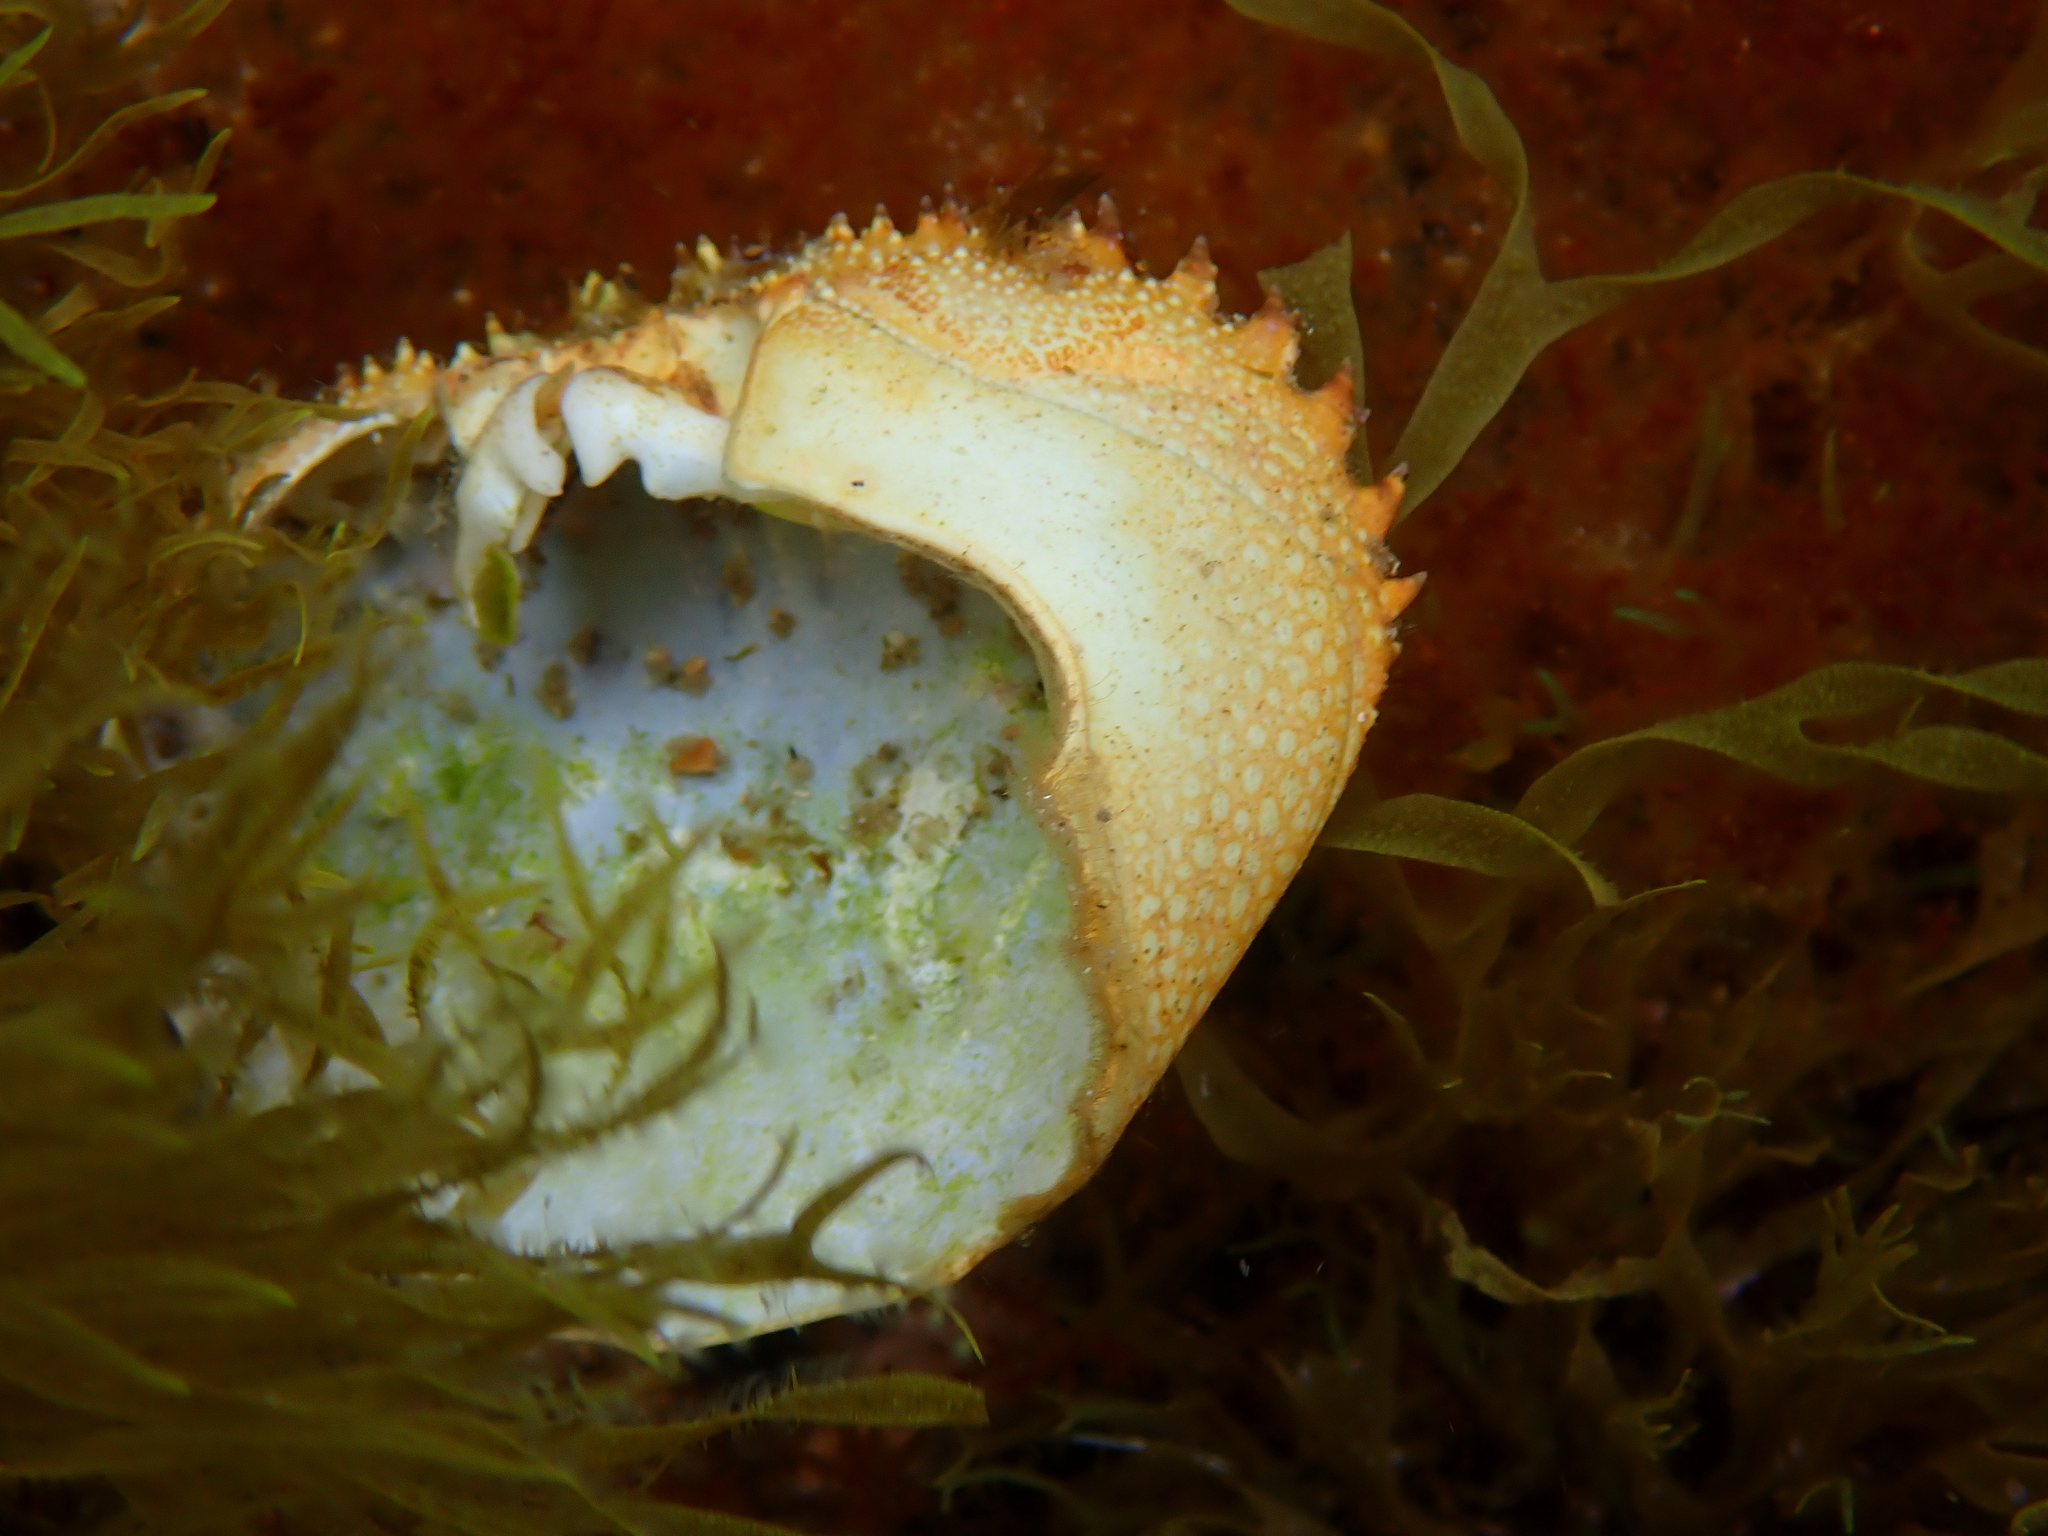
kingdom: Animalia
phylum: Arthropoda
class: Malacostraca
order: Decapoda
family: Eriphiidae
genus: Eriphia
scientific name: Eriphia verrucosa
